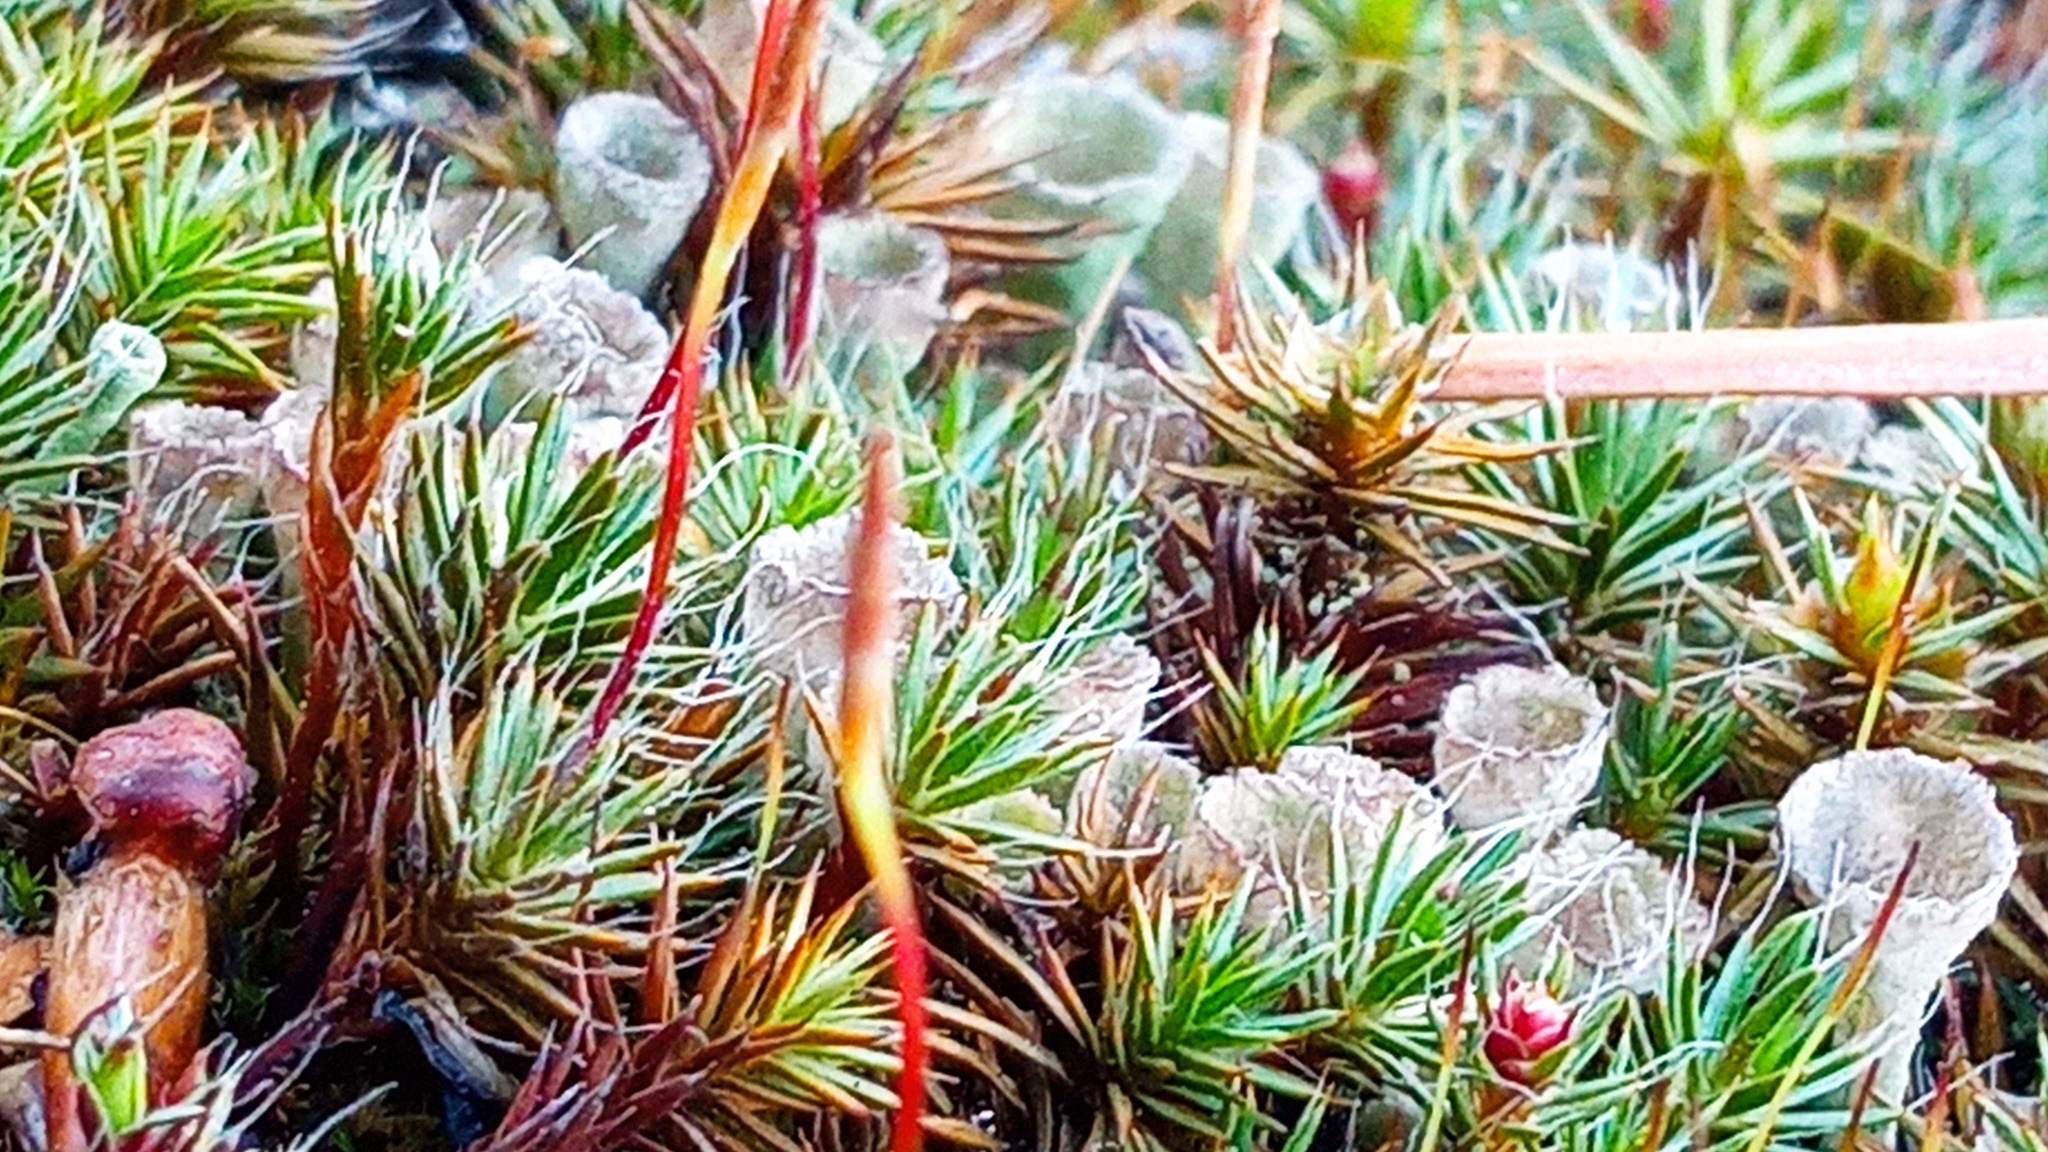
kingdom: Fungi
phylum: Ascomycota
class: Lecanoromycetes
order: Lecanorales
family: Cladoniaceae
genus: Cladonia
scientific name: Cladonia fimbriata
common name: Powdered trumpet lichen
